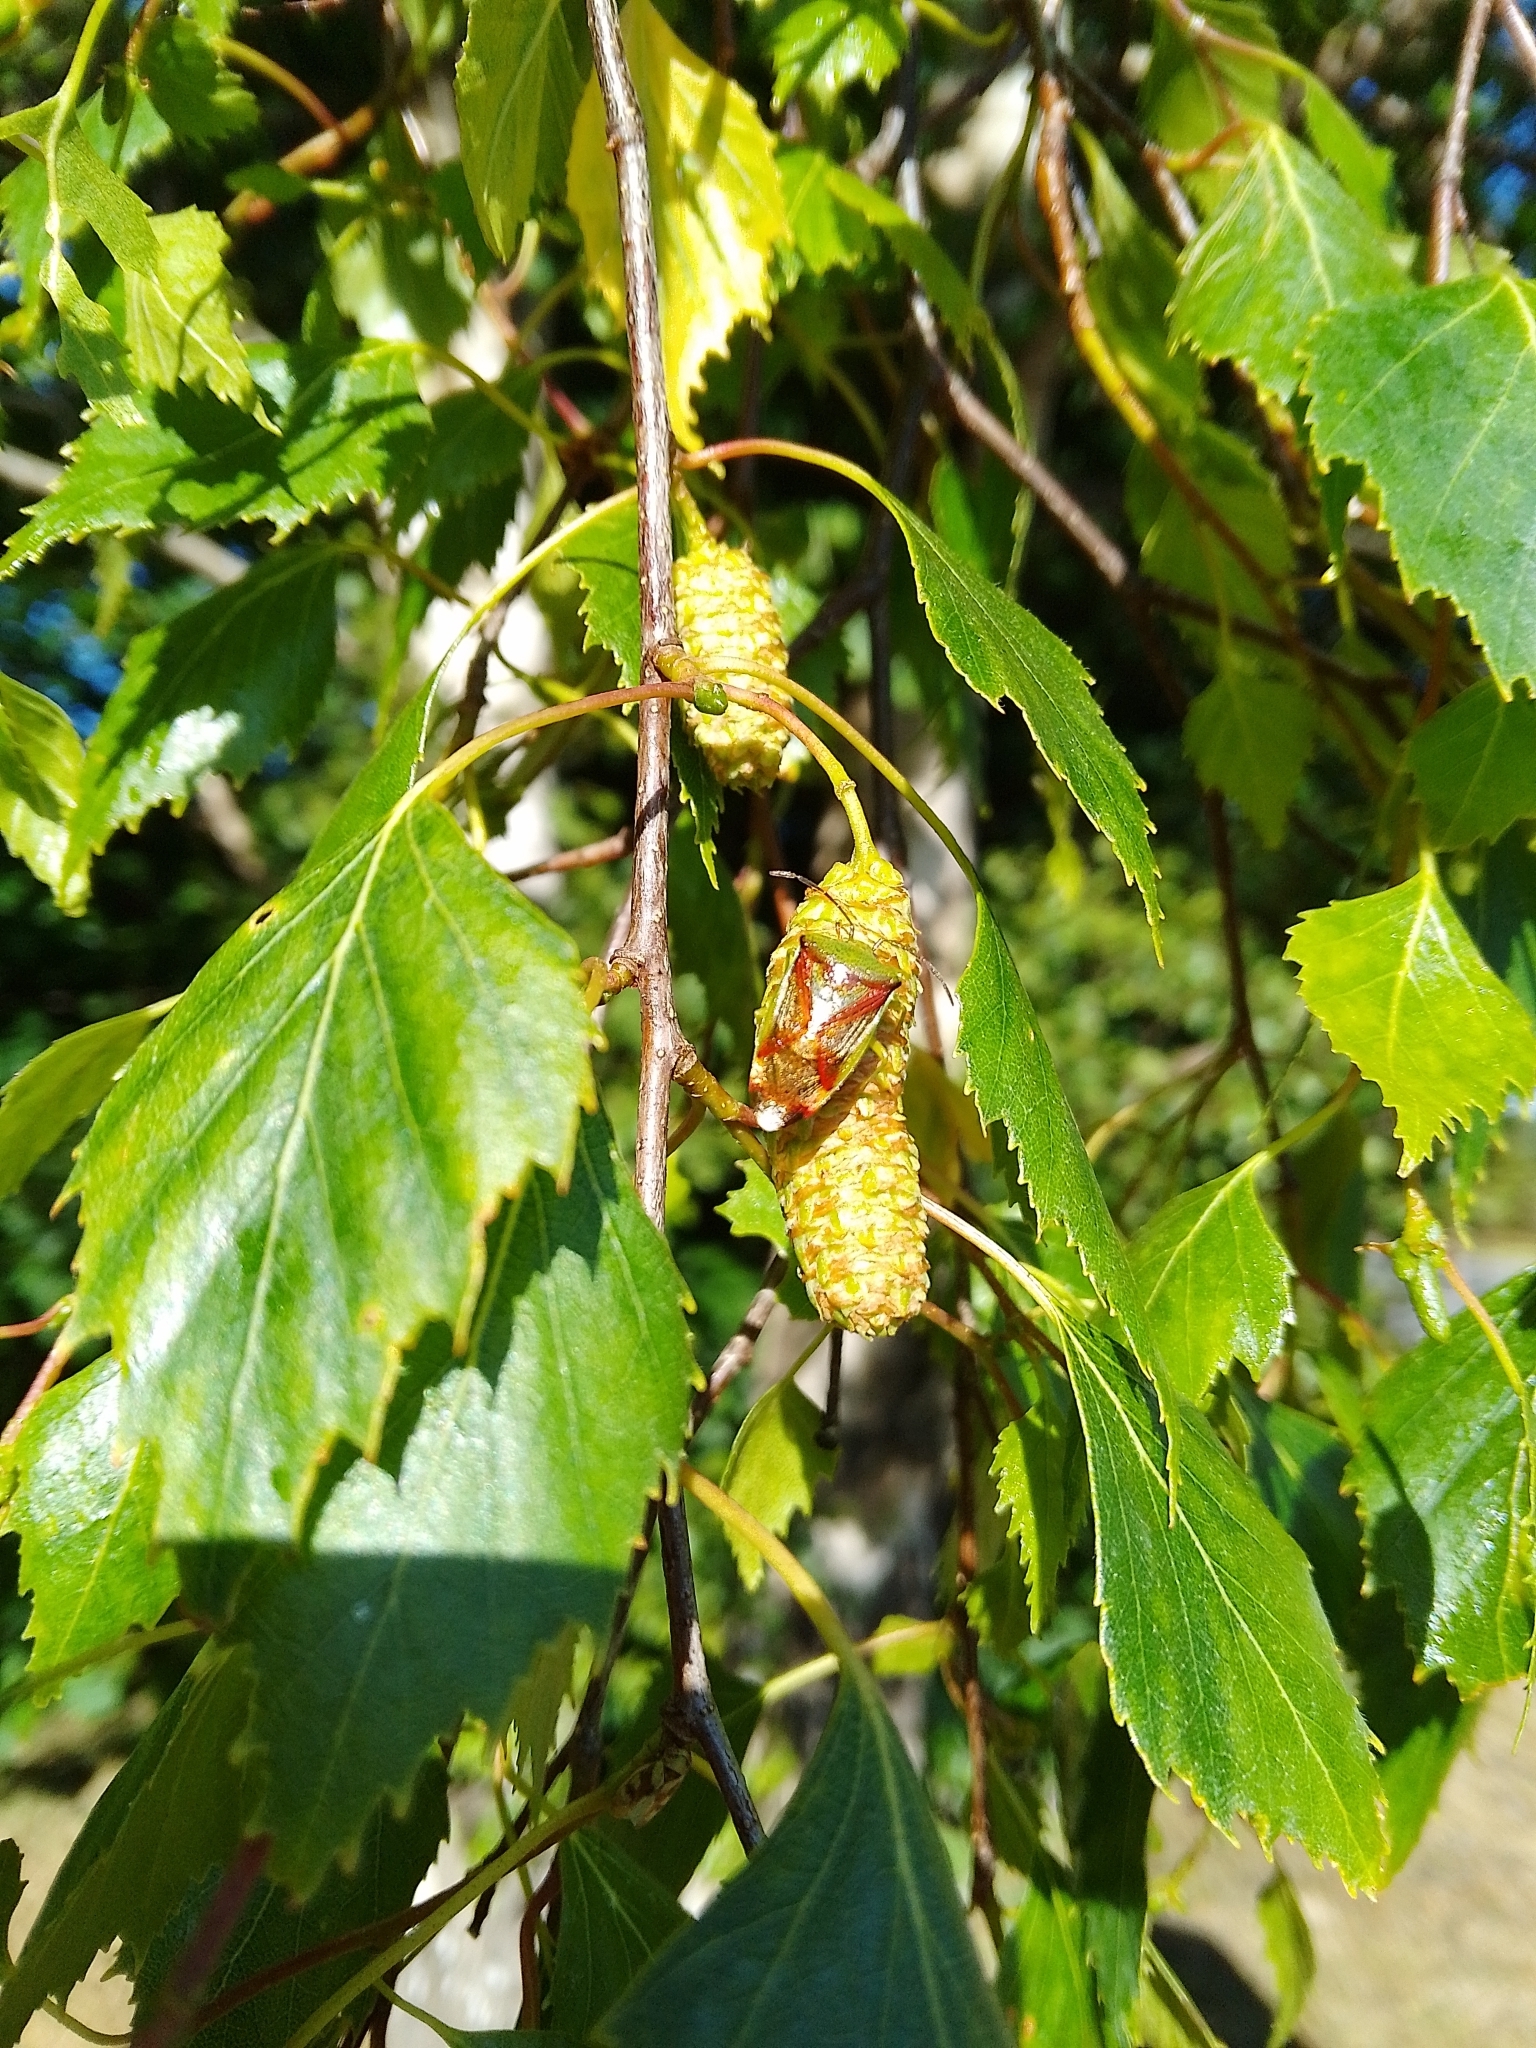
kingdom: Animalia
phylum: Arthropoda
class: Insecta
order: Hemiptera
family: Acanthosomatidae
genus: Elasmostethus
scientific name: Elasmostethus interstinctus
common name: Birch shieldbug
